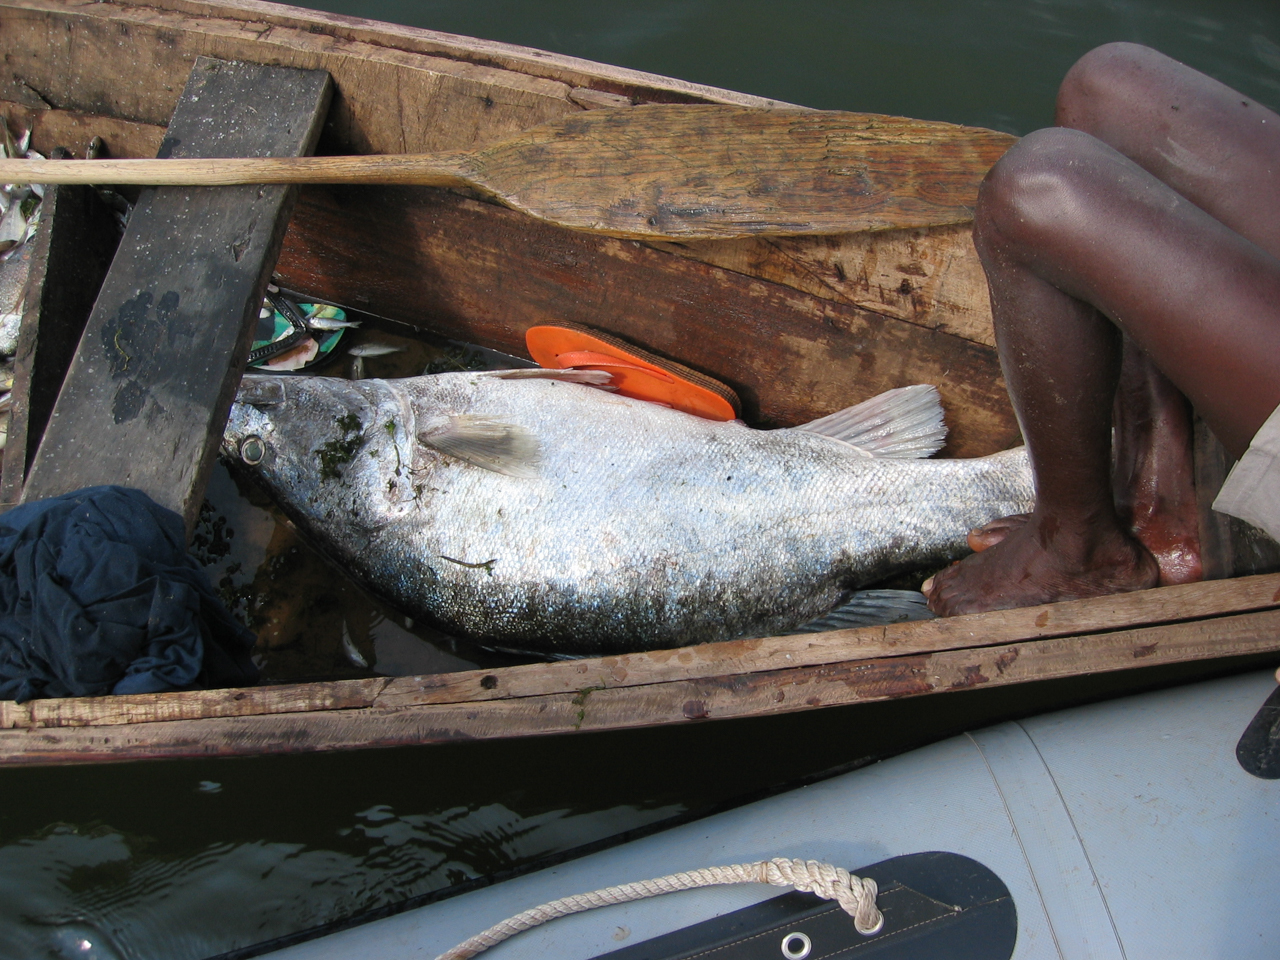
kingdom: Animalia
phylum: Chordata
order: Perciformes
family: Latidae
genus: Lates
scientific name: Lates angustifrons
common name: Tanganyika lates
